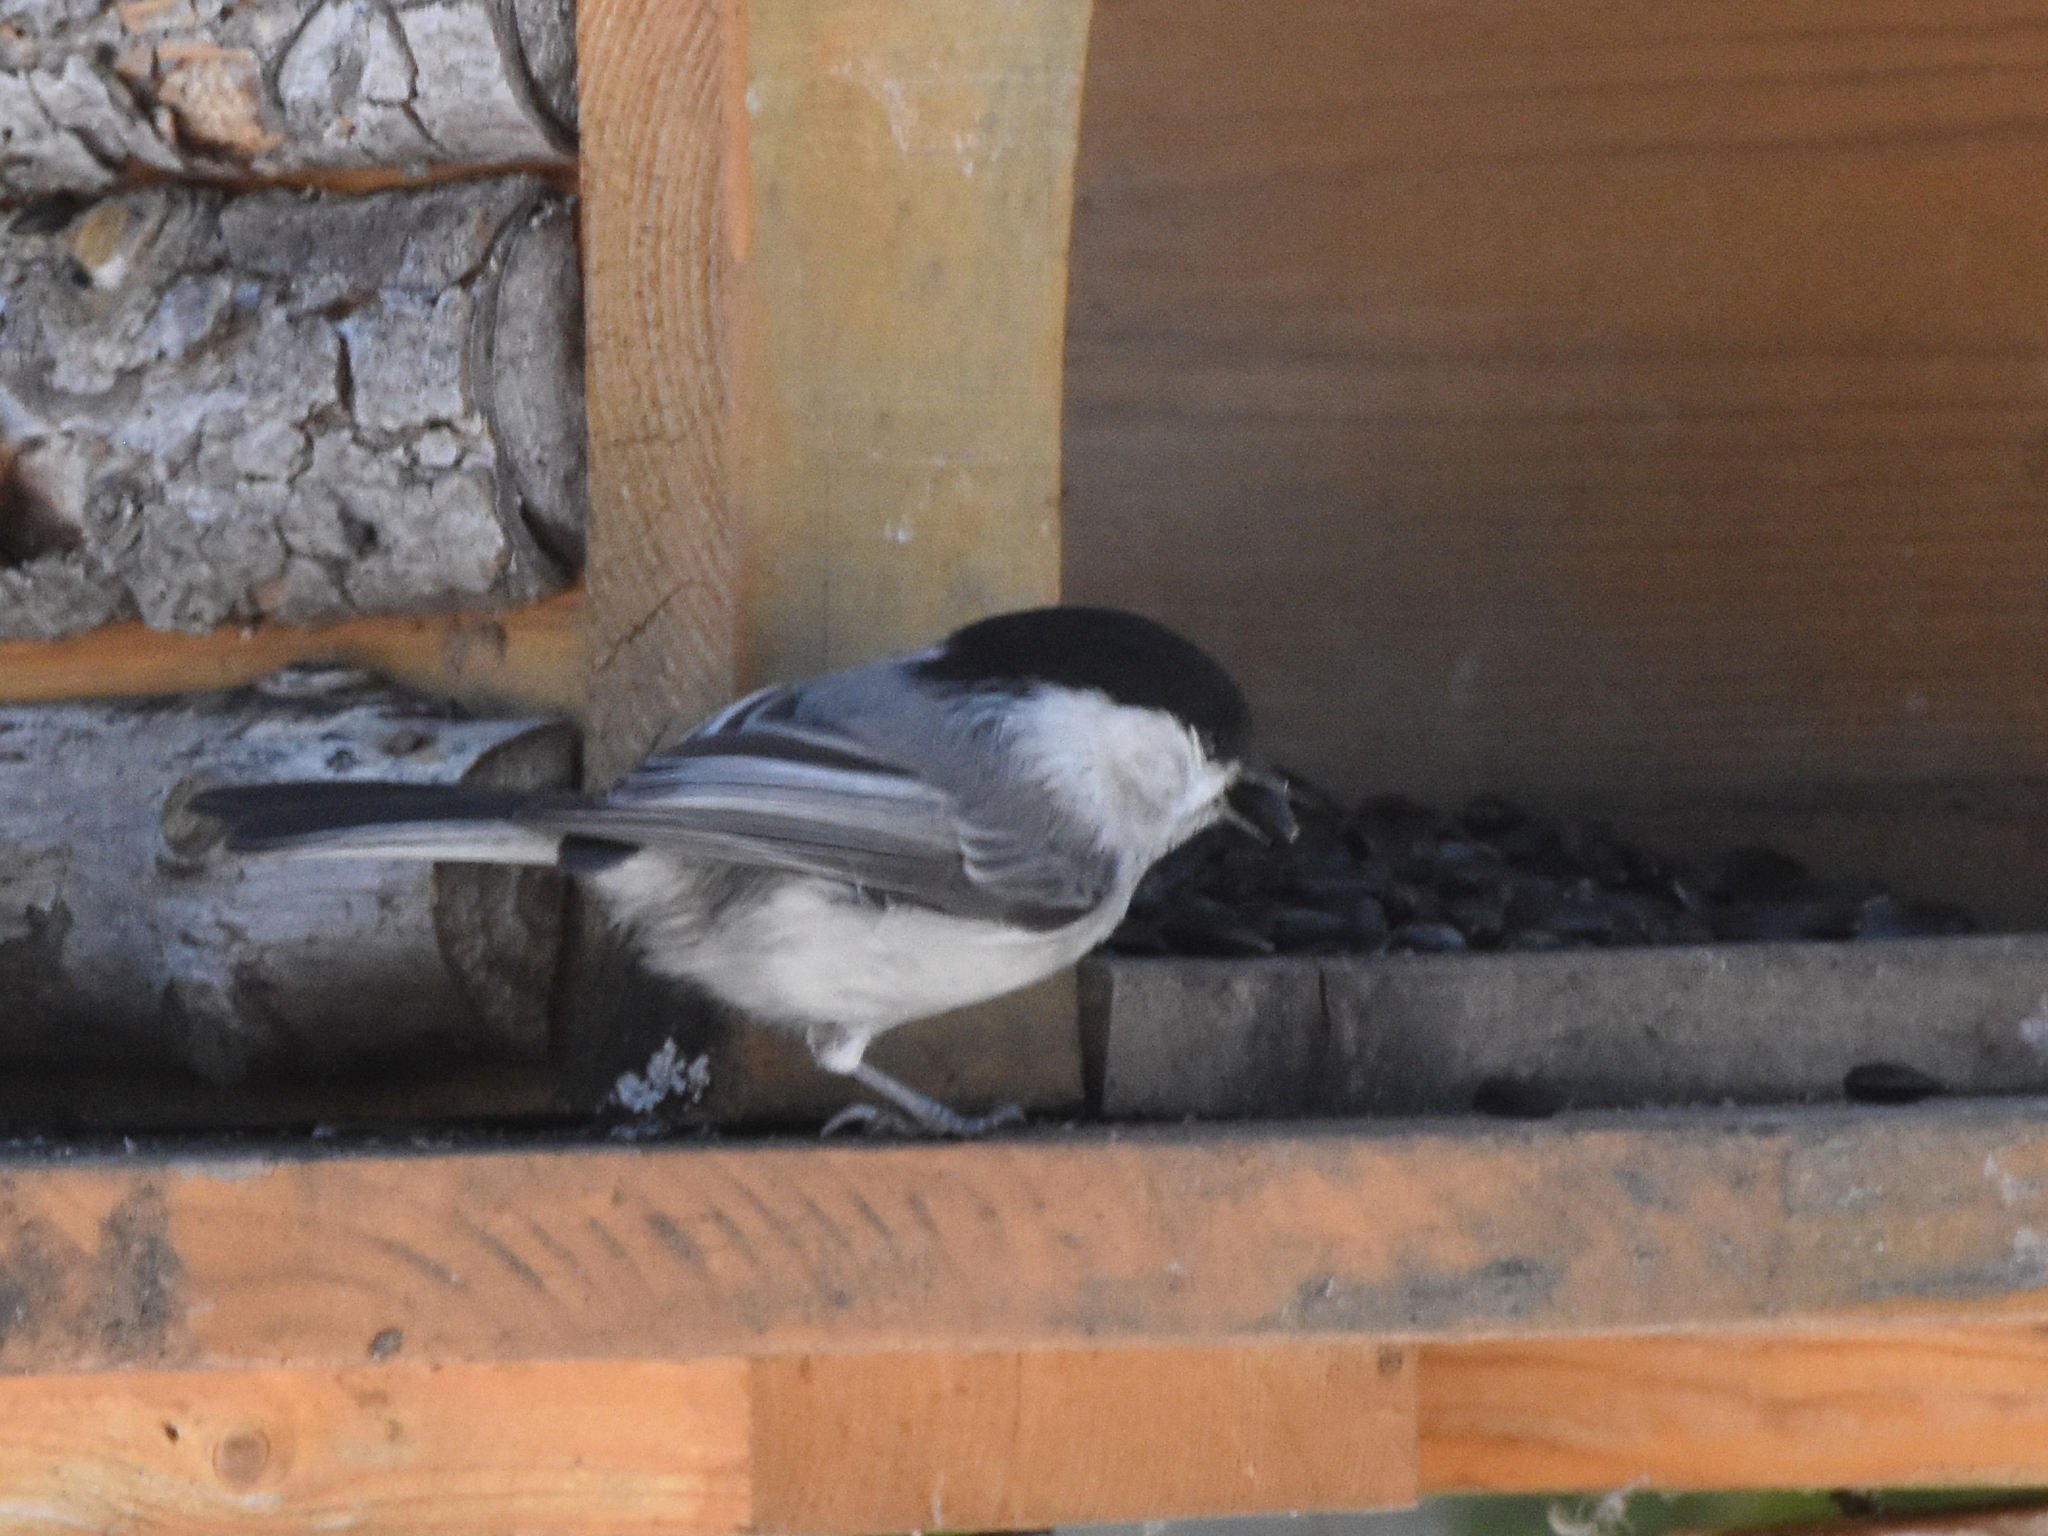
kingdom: Animalia
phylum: Chordata
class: Aves
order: Passeriformes
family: Paridae
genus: Poecile
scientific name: Poecile montanus
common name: Willow tit
